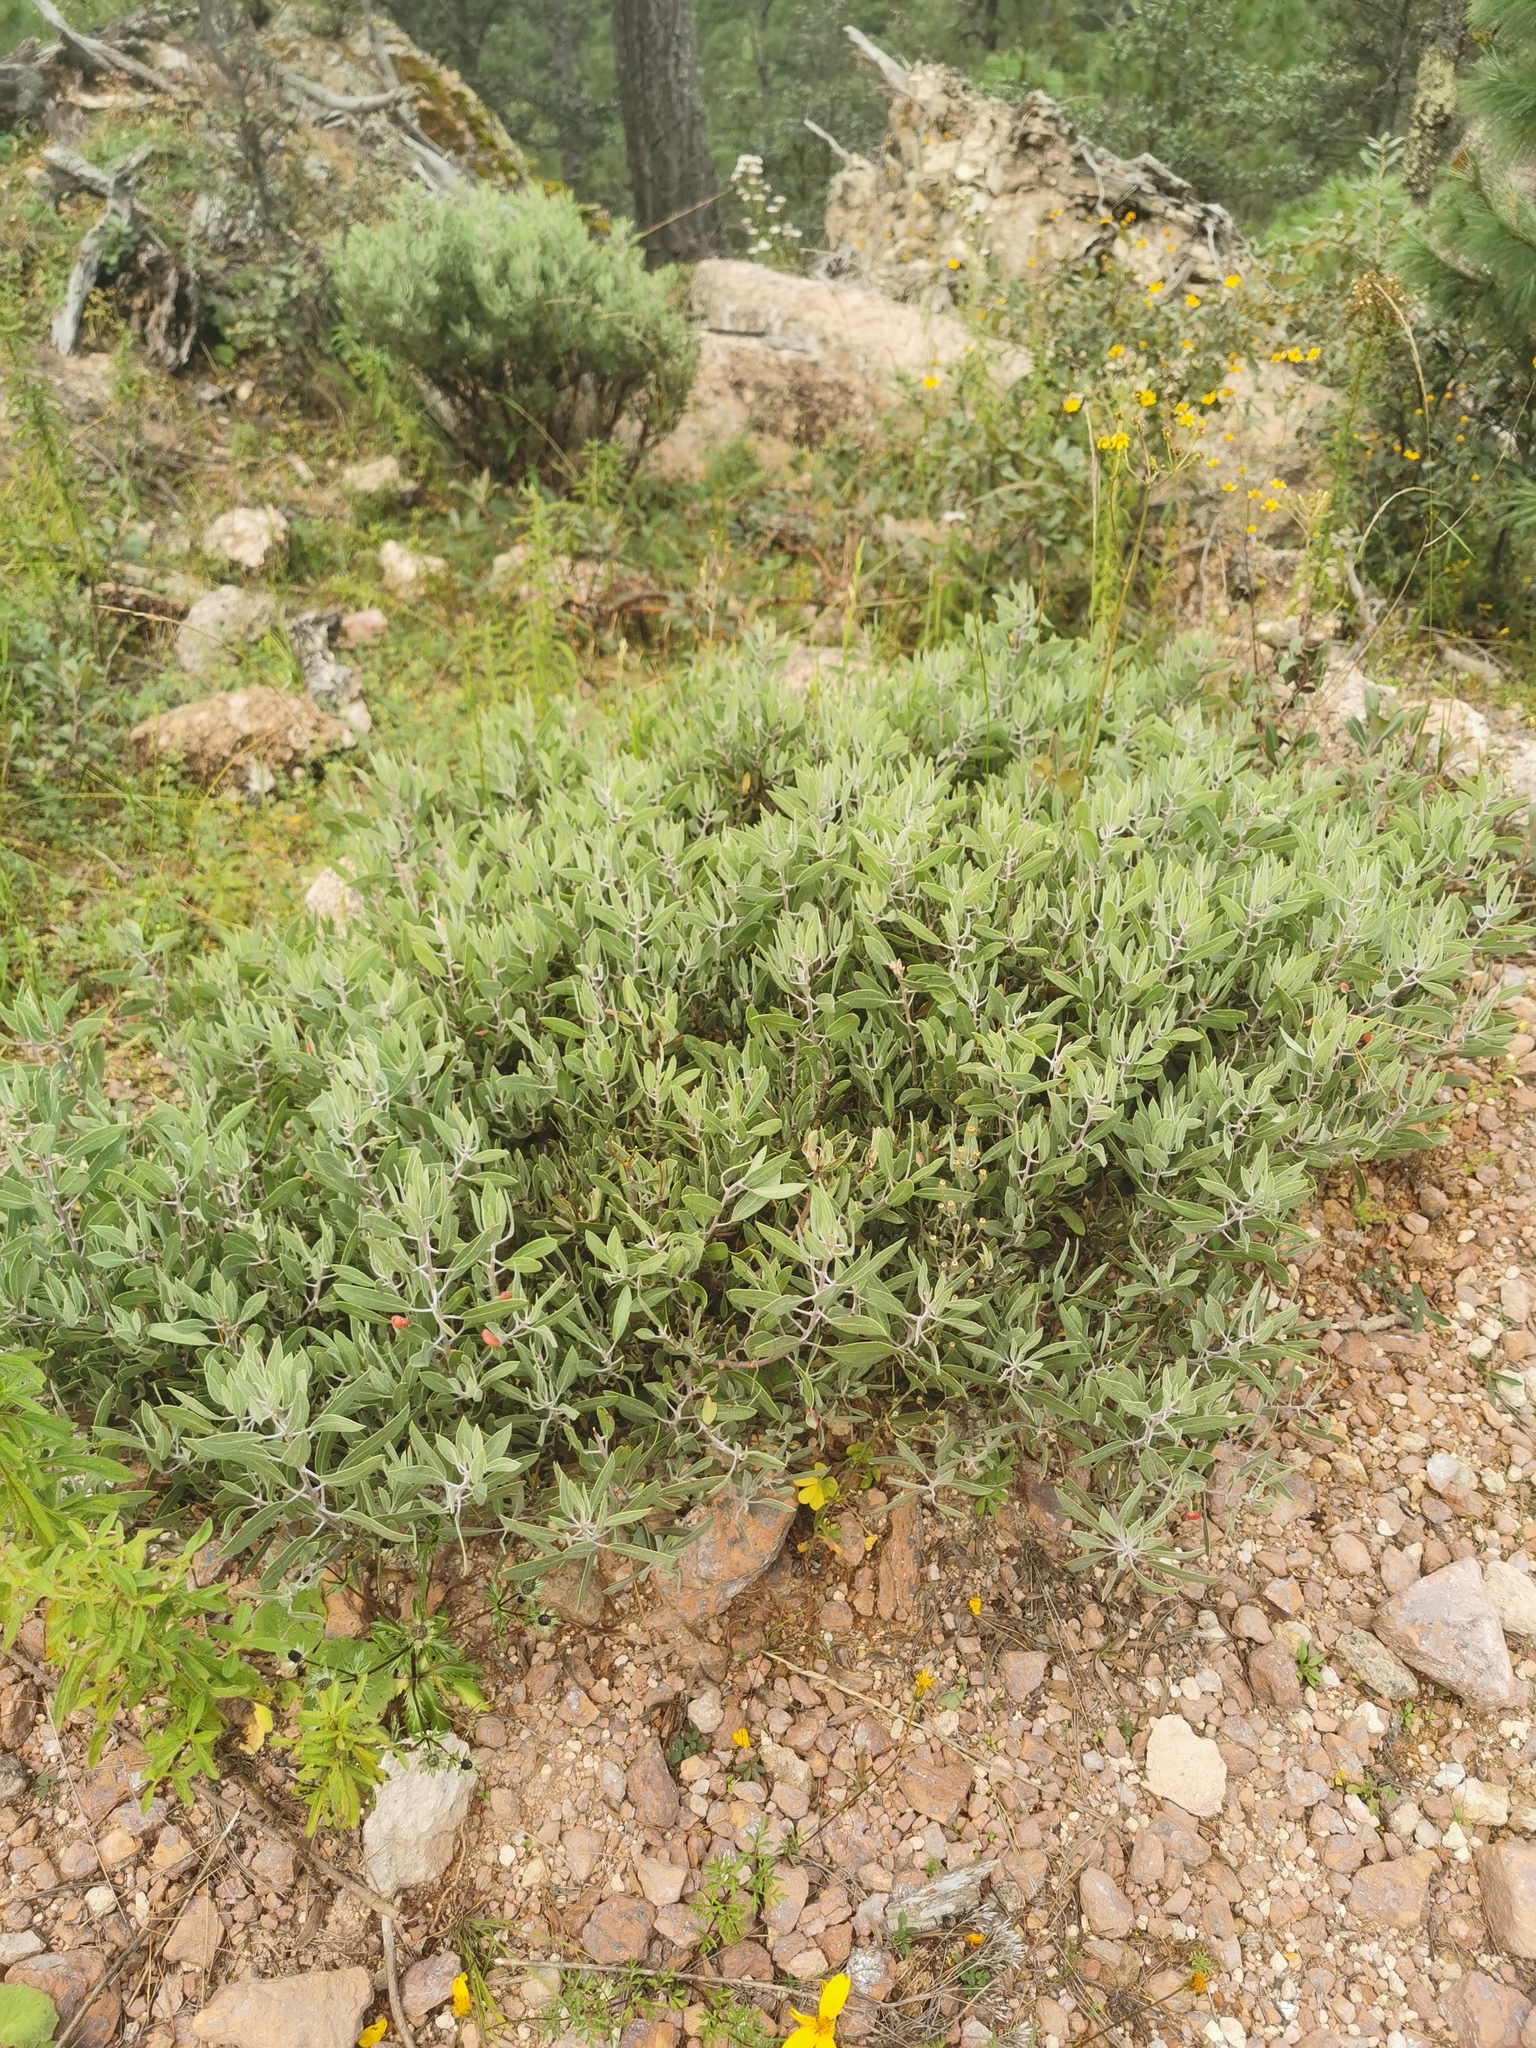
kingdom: Plantae
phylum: Tracheophyta
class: Magnoliopsida
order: Ericales
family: Ericaceae
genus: Arctostaphylos
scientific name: Arctostaphylos pungens
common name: Mexican manzanita
